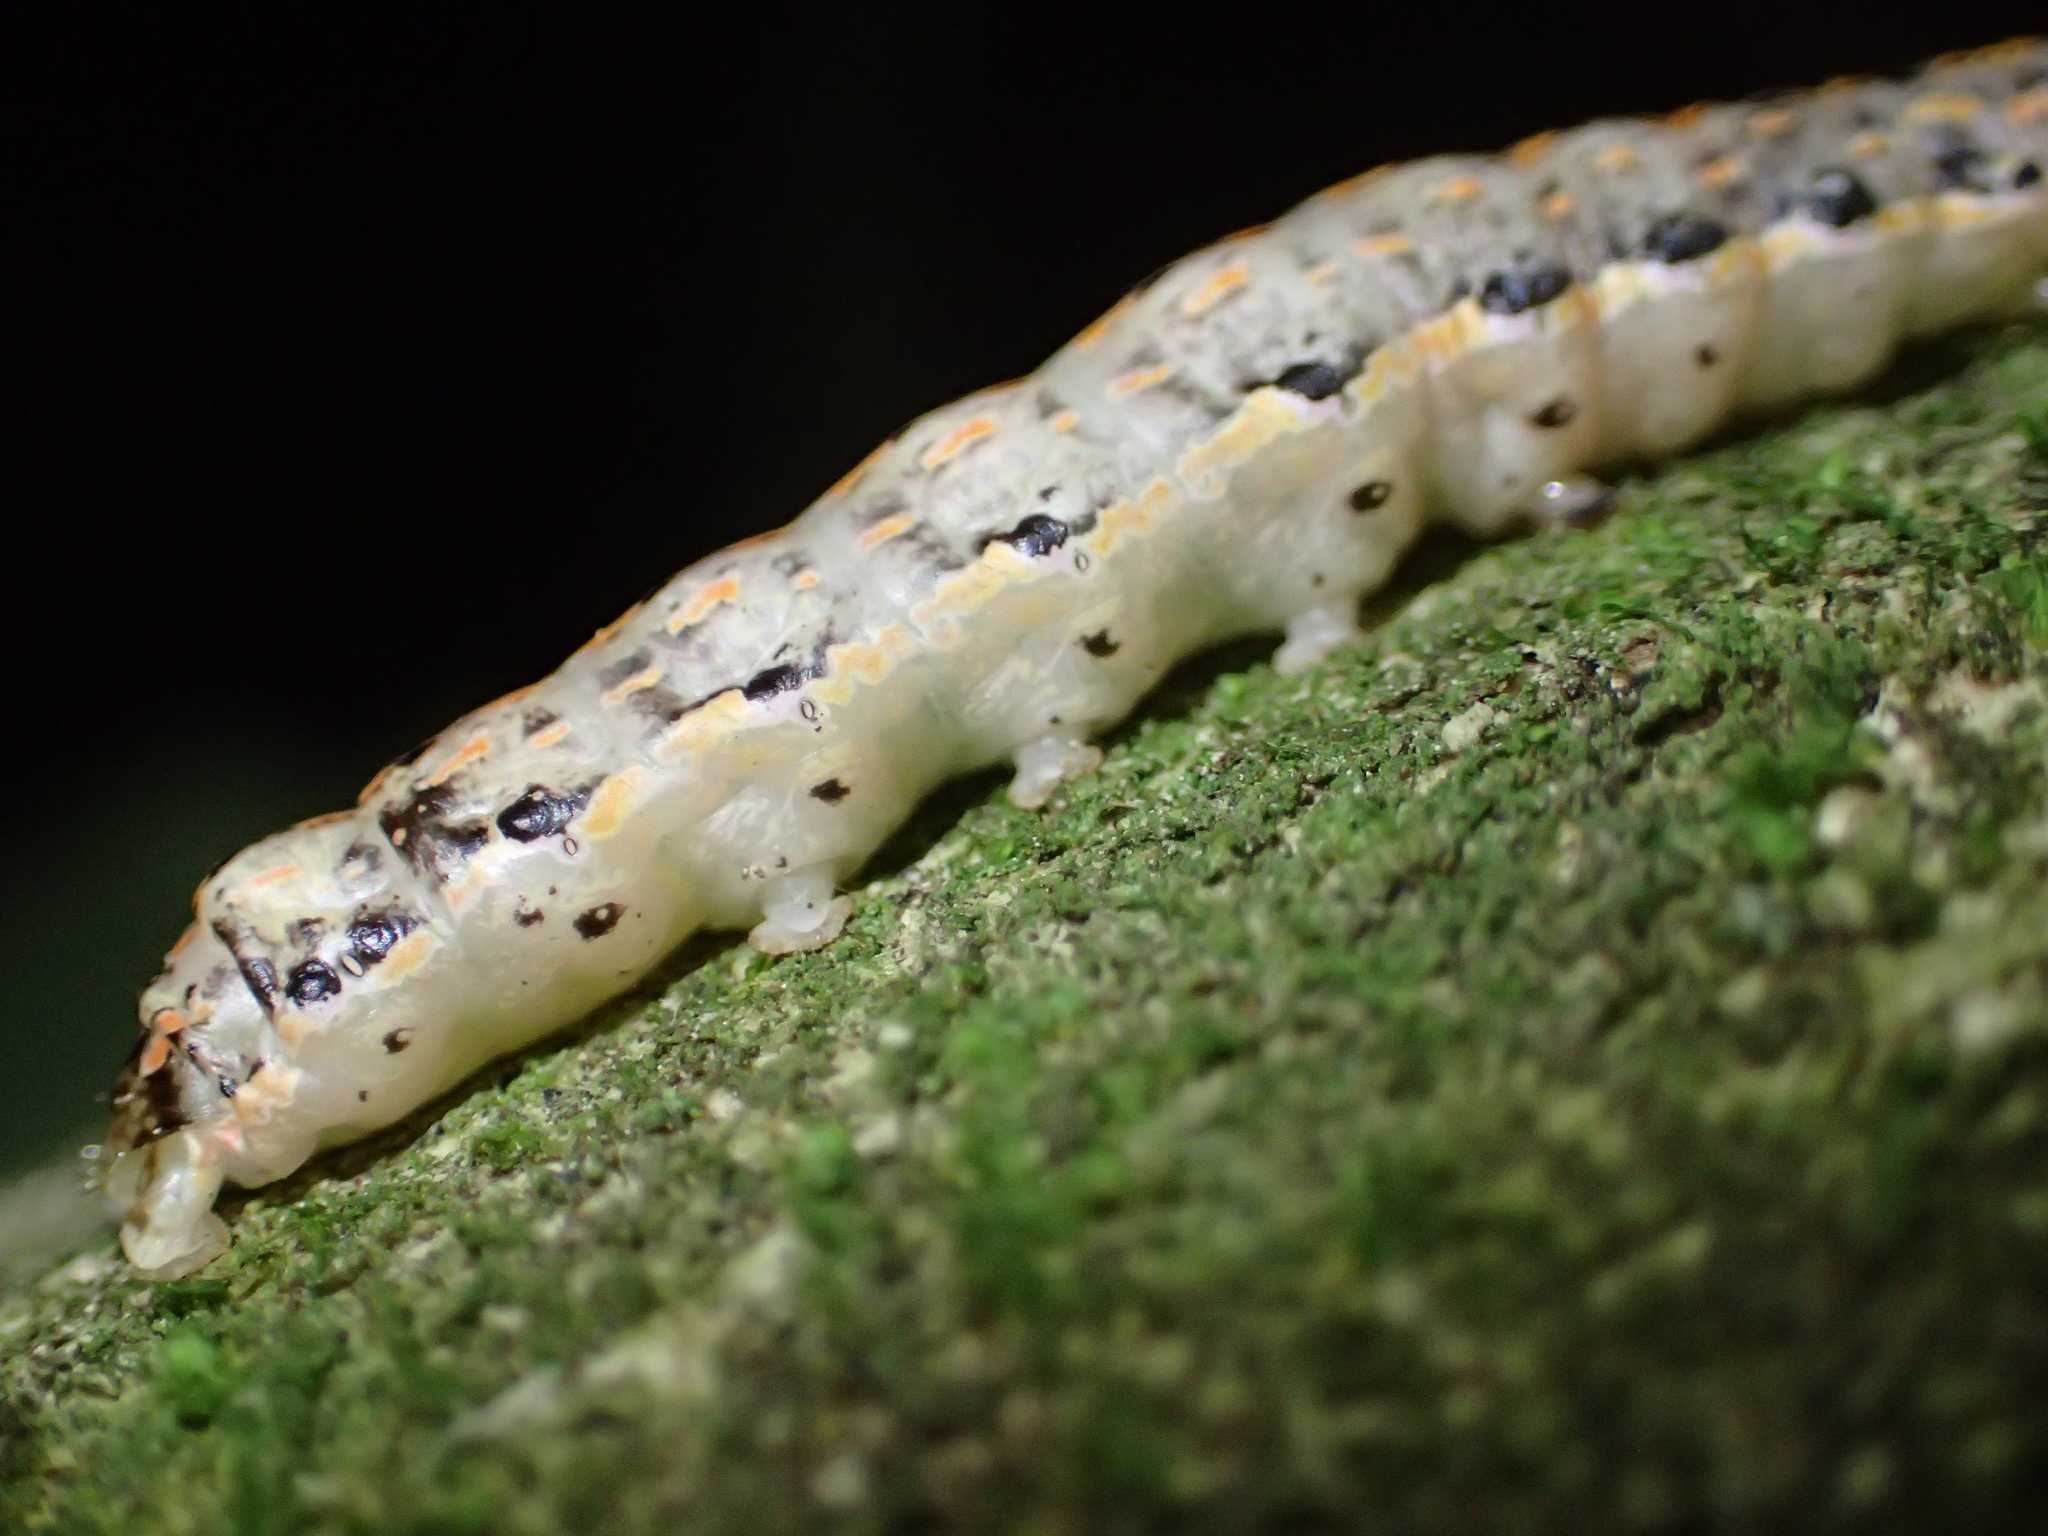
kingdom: Animalia
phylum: Arthropoda
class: Insecta
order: Lepidoptera
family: Noctuidae
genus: Austramathes
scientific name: Austramathes purpurea
